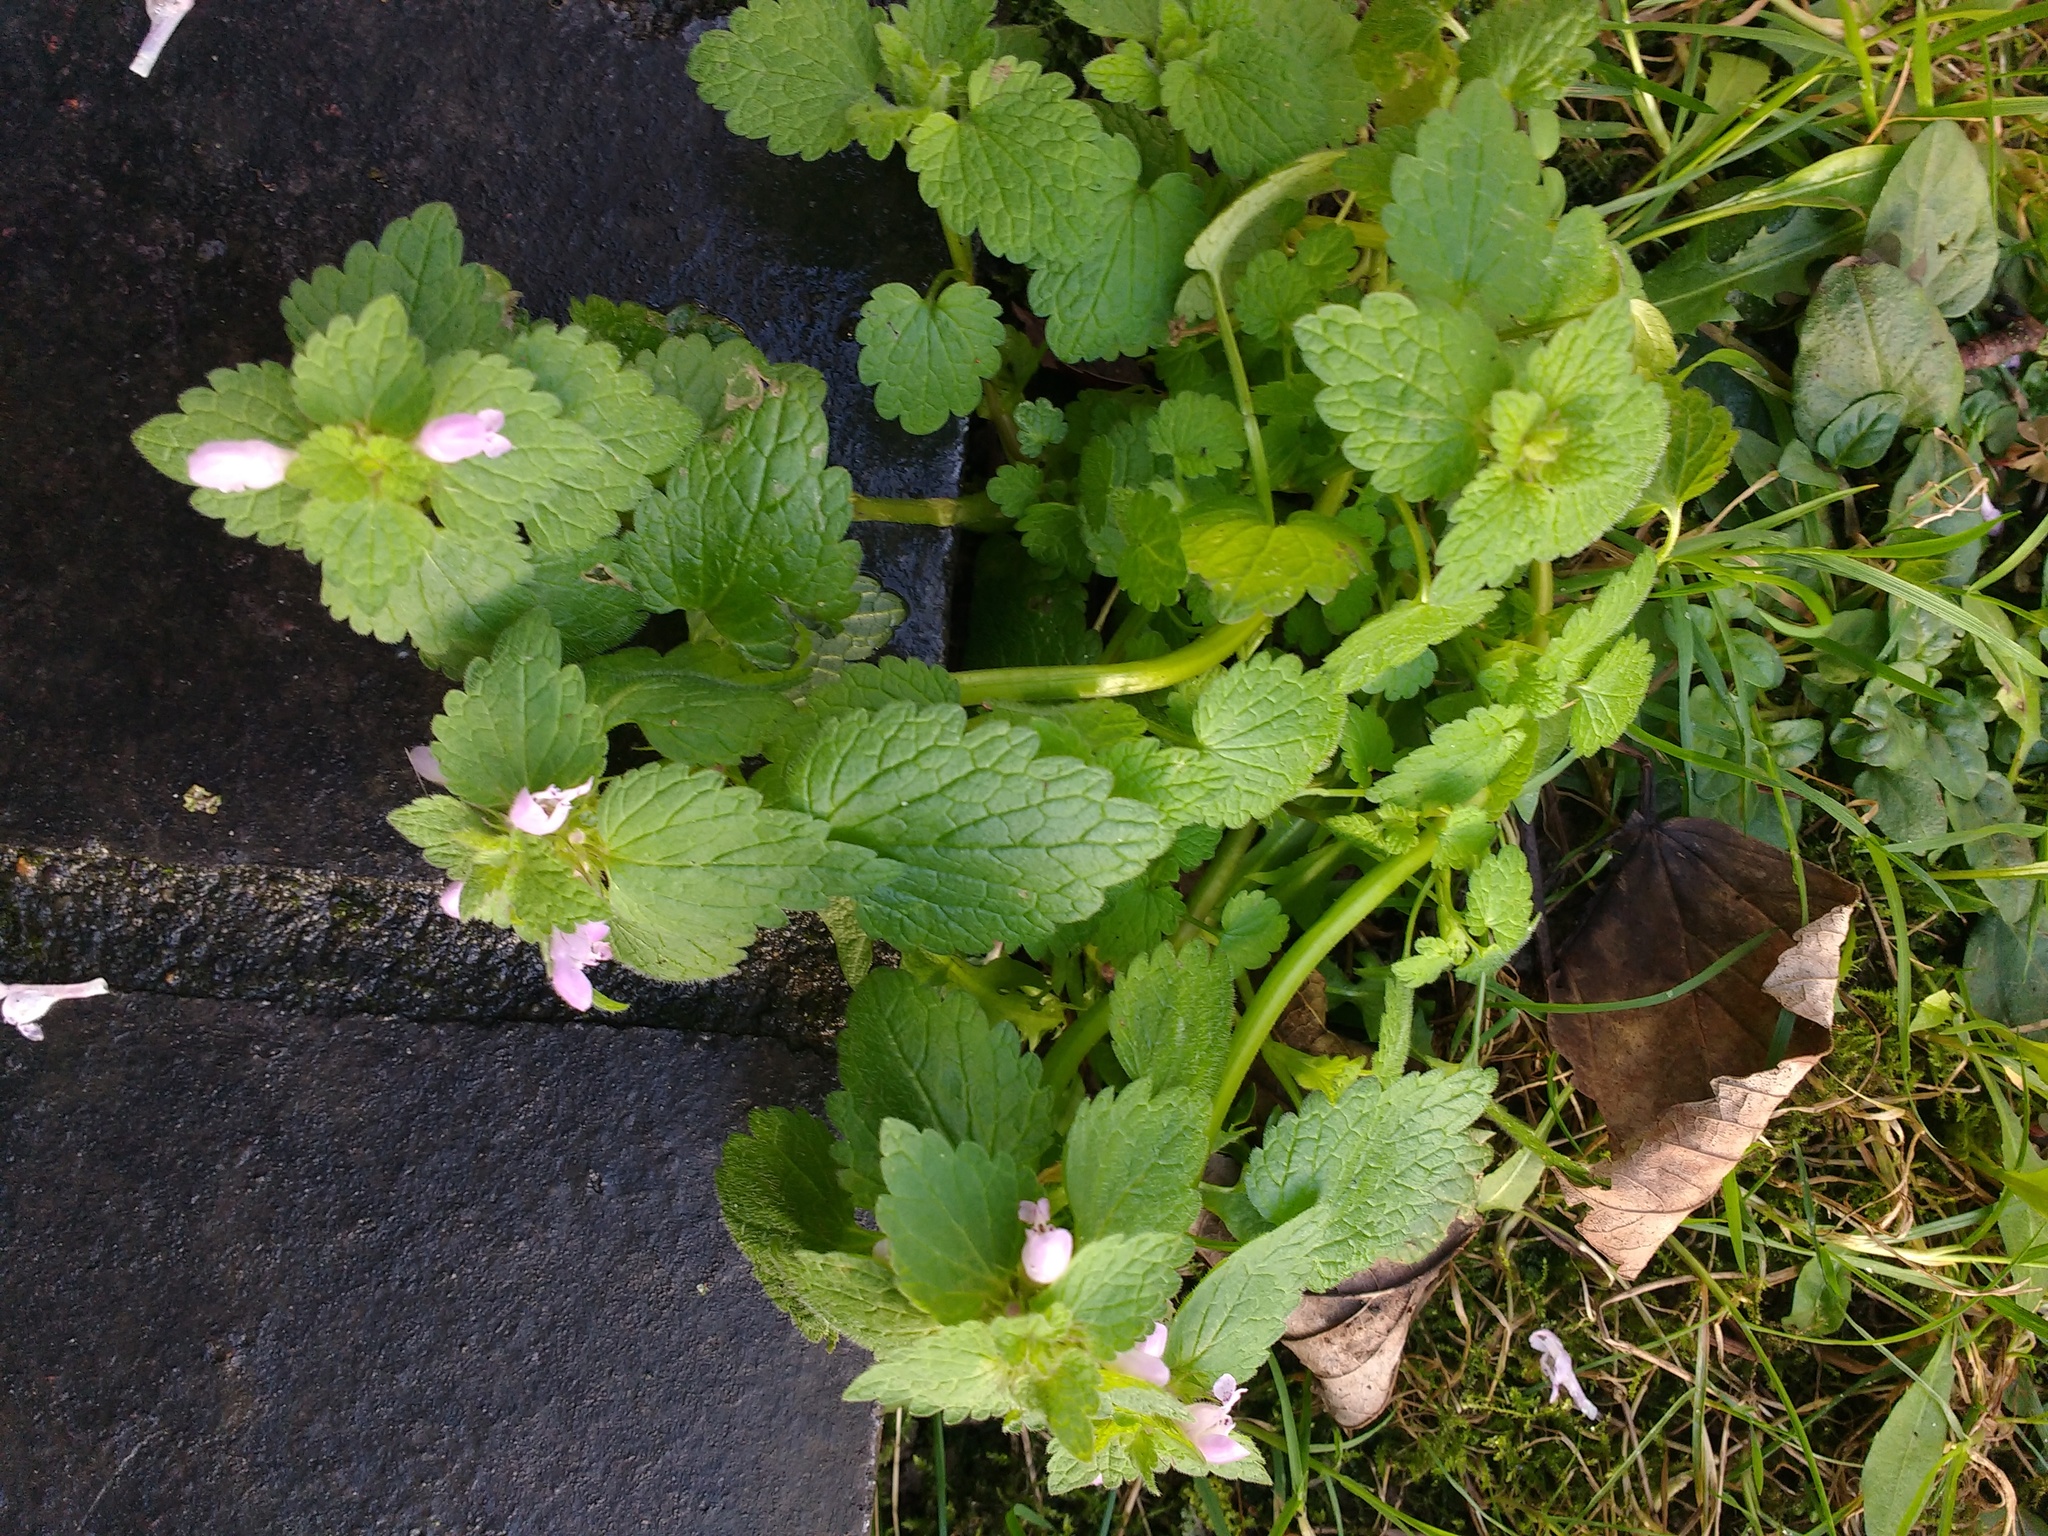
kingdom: Plantae
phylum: Tracheophyta
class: Magnoliopsida
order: Lamiales
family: Lamiaceae
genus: Lamium
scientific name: Lamium purpureum
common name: Red dead-nettle
